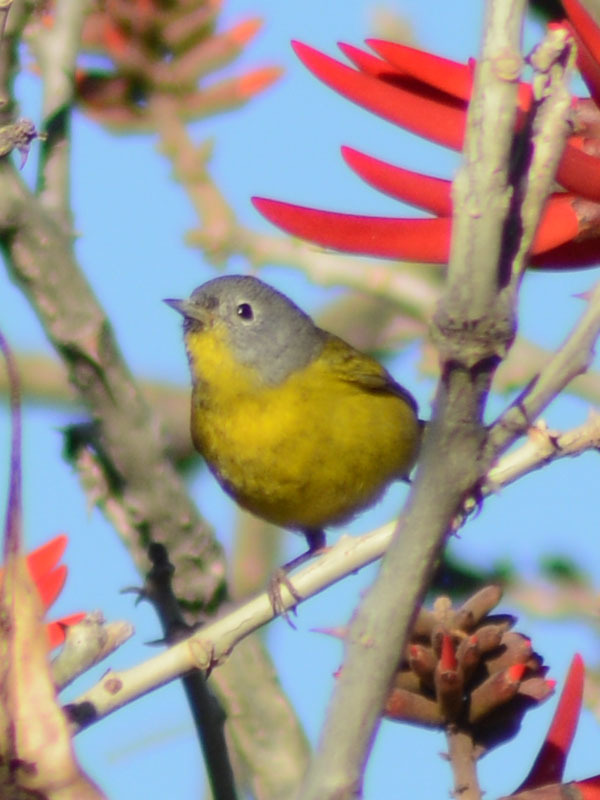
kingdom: Animalia
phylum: Chordata
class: Aves
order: Passeriformes
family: Parulidae
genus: Leiothlypis
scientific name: Leiothlypis ruficapilla
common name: Nashville warbler
